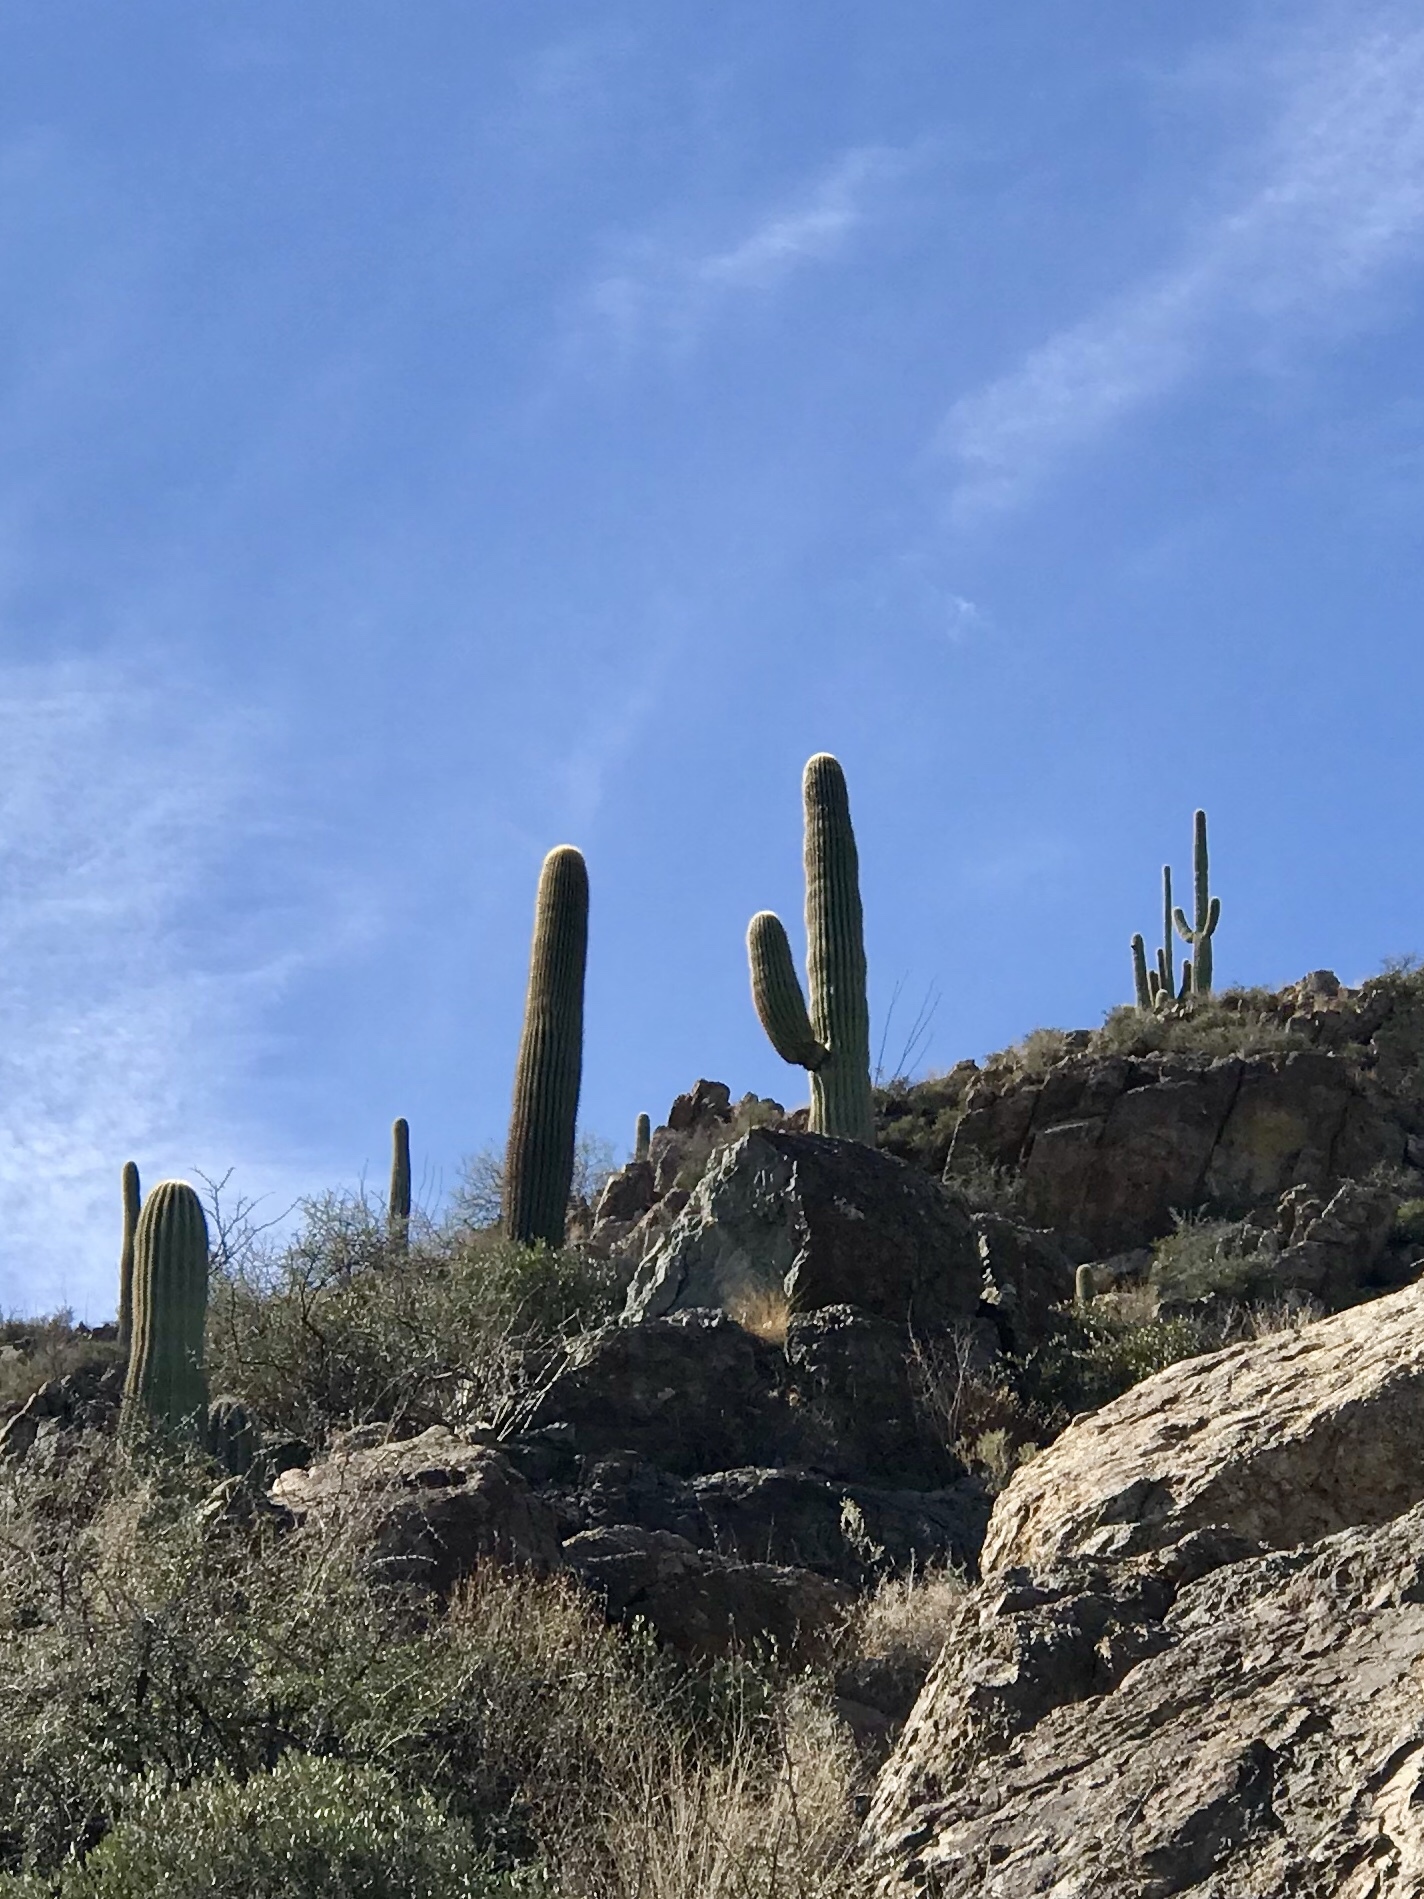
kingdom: Plantae
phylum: Tracheophyta
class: Magnoliopsida
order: Caryophyllales
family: Cactaceae
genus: Carnegiea
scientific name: Carnegiea gigantea
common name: Saguaro
